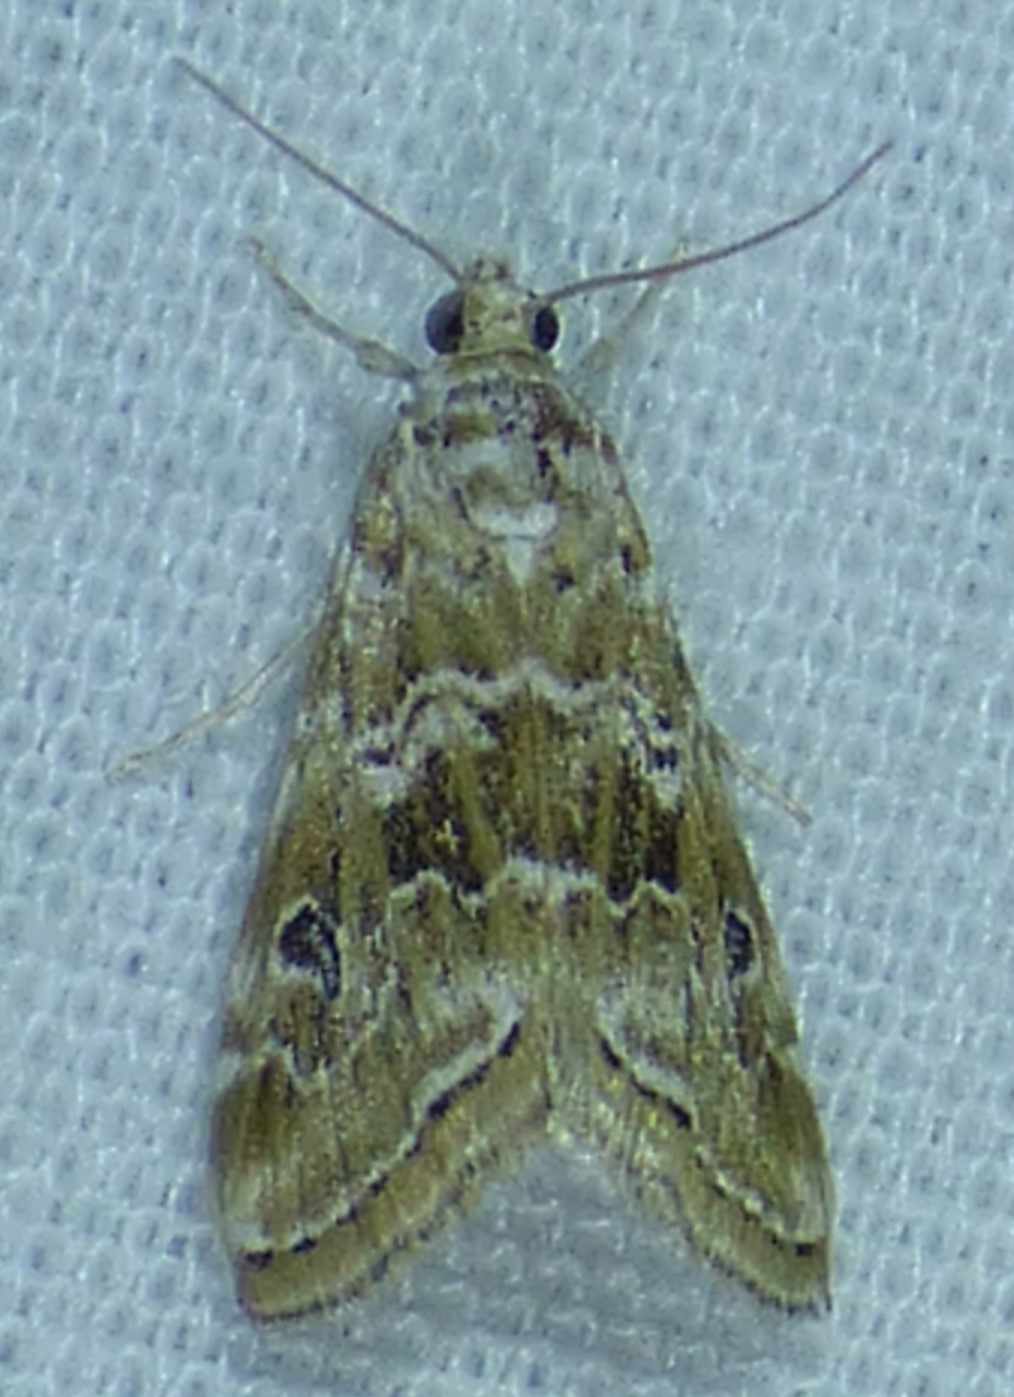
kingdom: Animalia
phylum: Arthropoda
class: Insecta
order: Lepidoptera
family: Crambidae
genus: Hellula
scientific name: Hellula rogatalis
